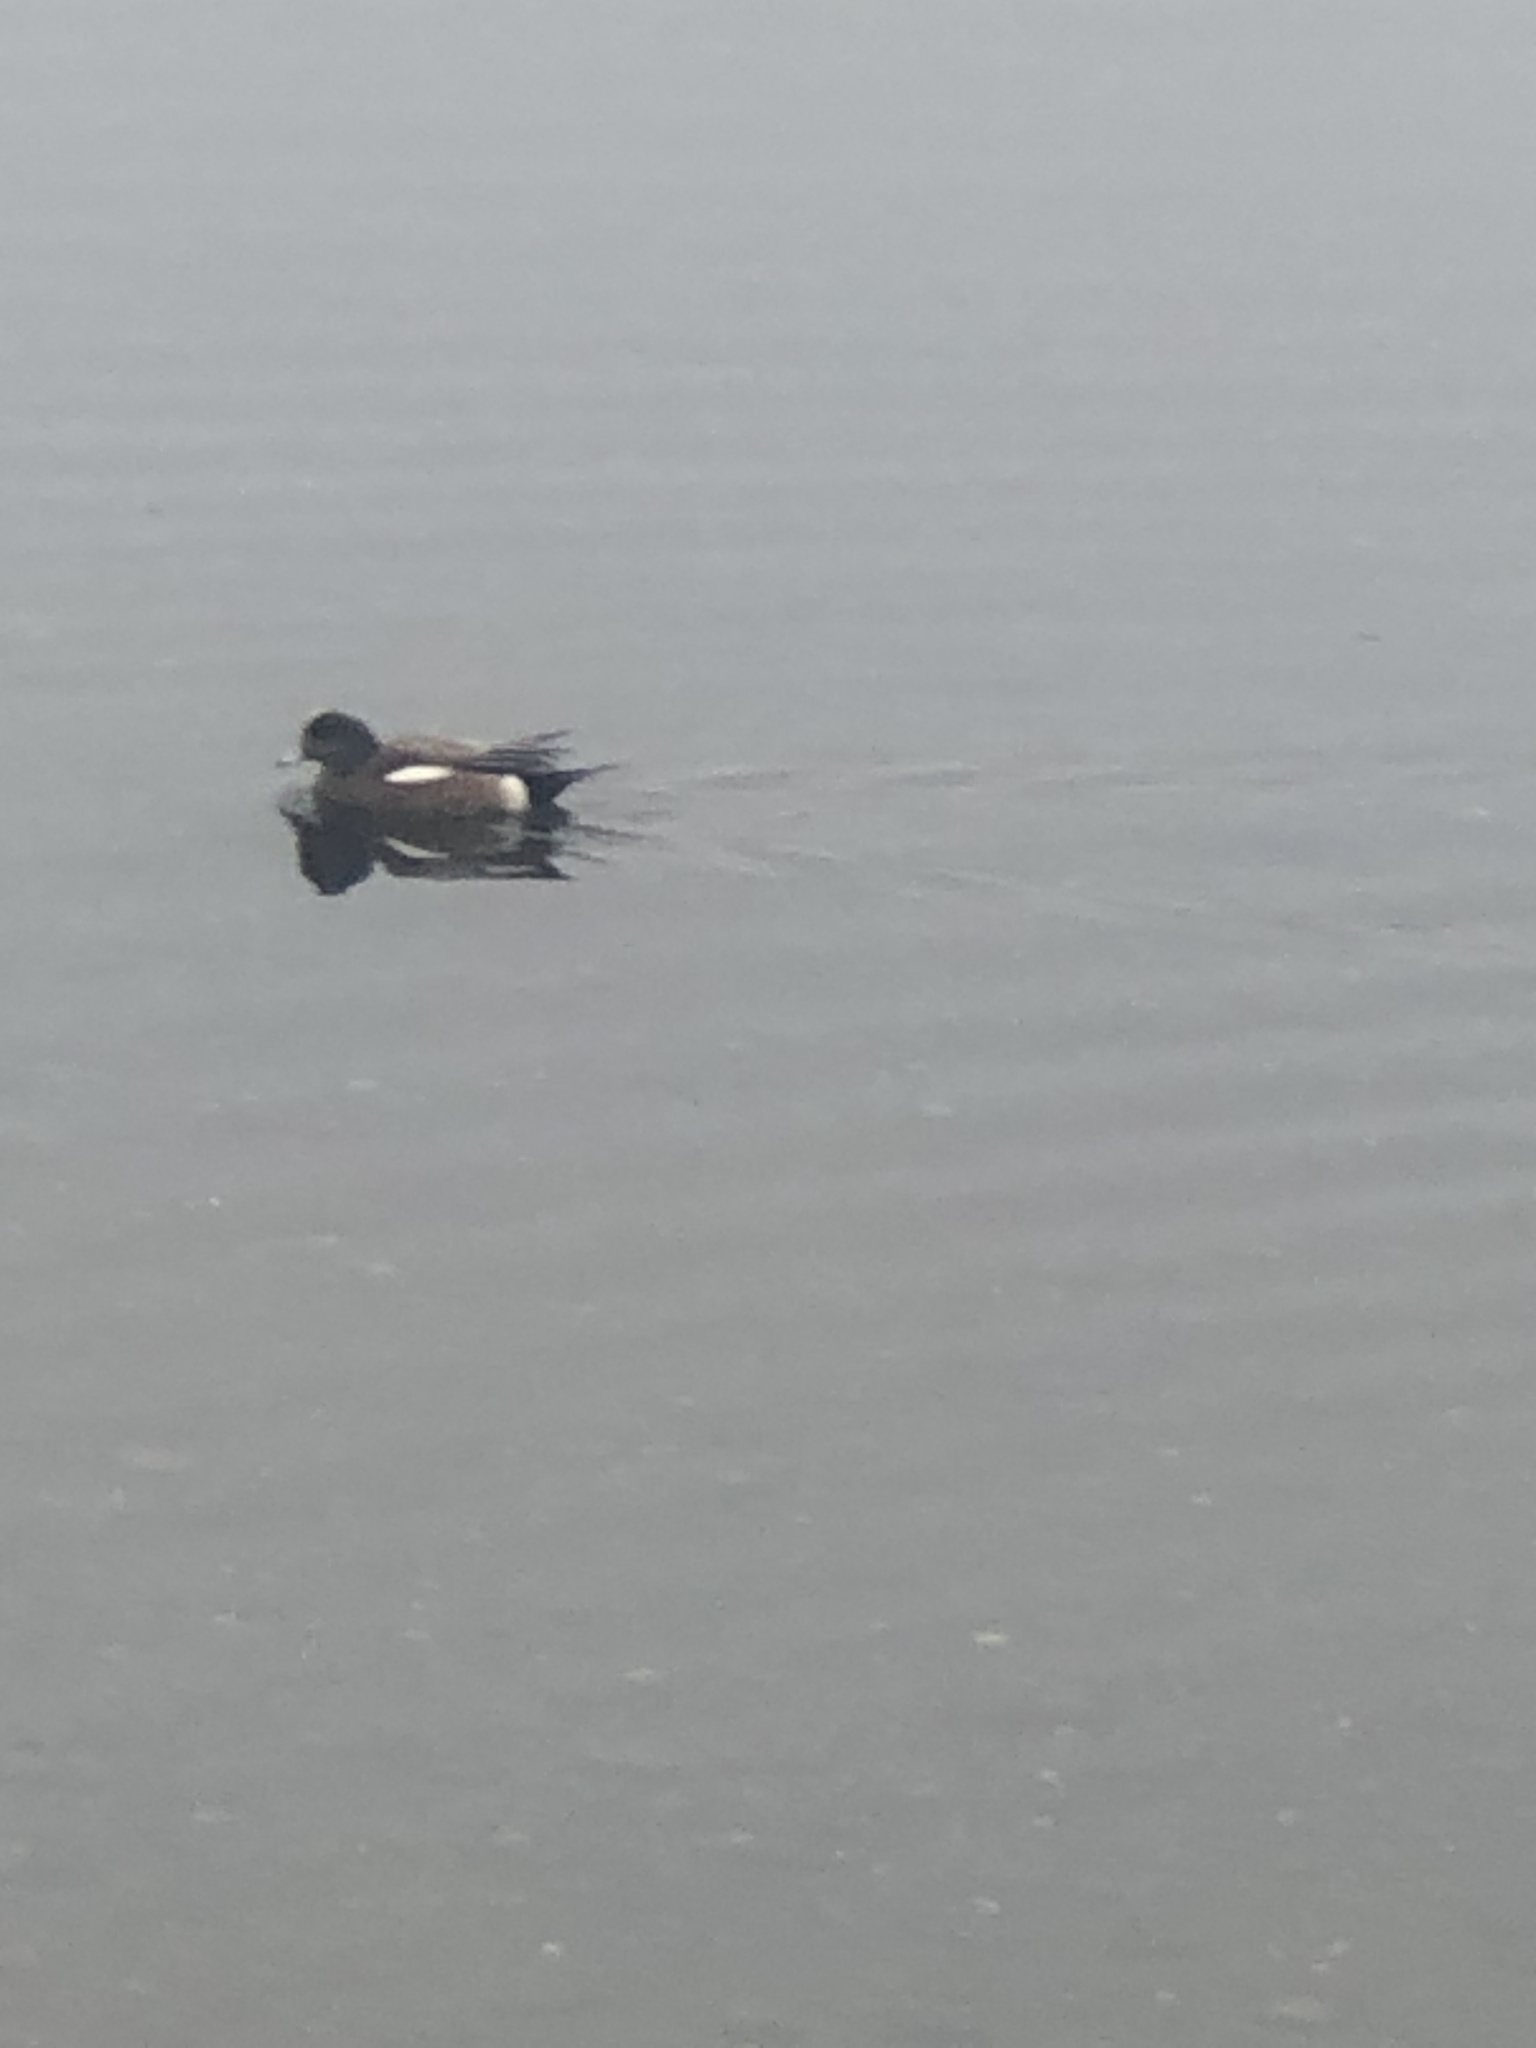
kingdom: Animalia
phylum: Chordata
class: Aves
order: Anseriformes
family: Anatidae
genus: Mareca
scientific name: Mareca americana
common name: American wigeon
